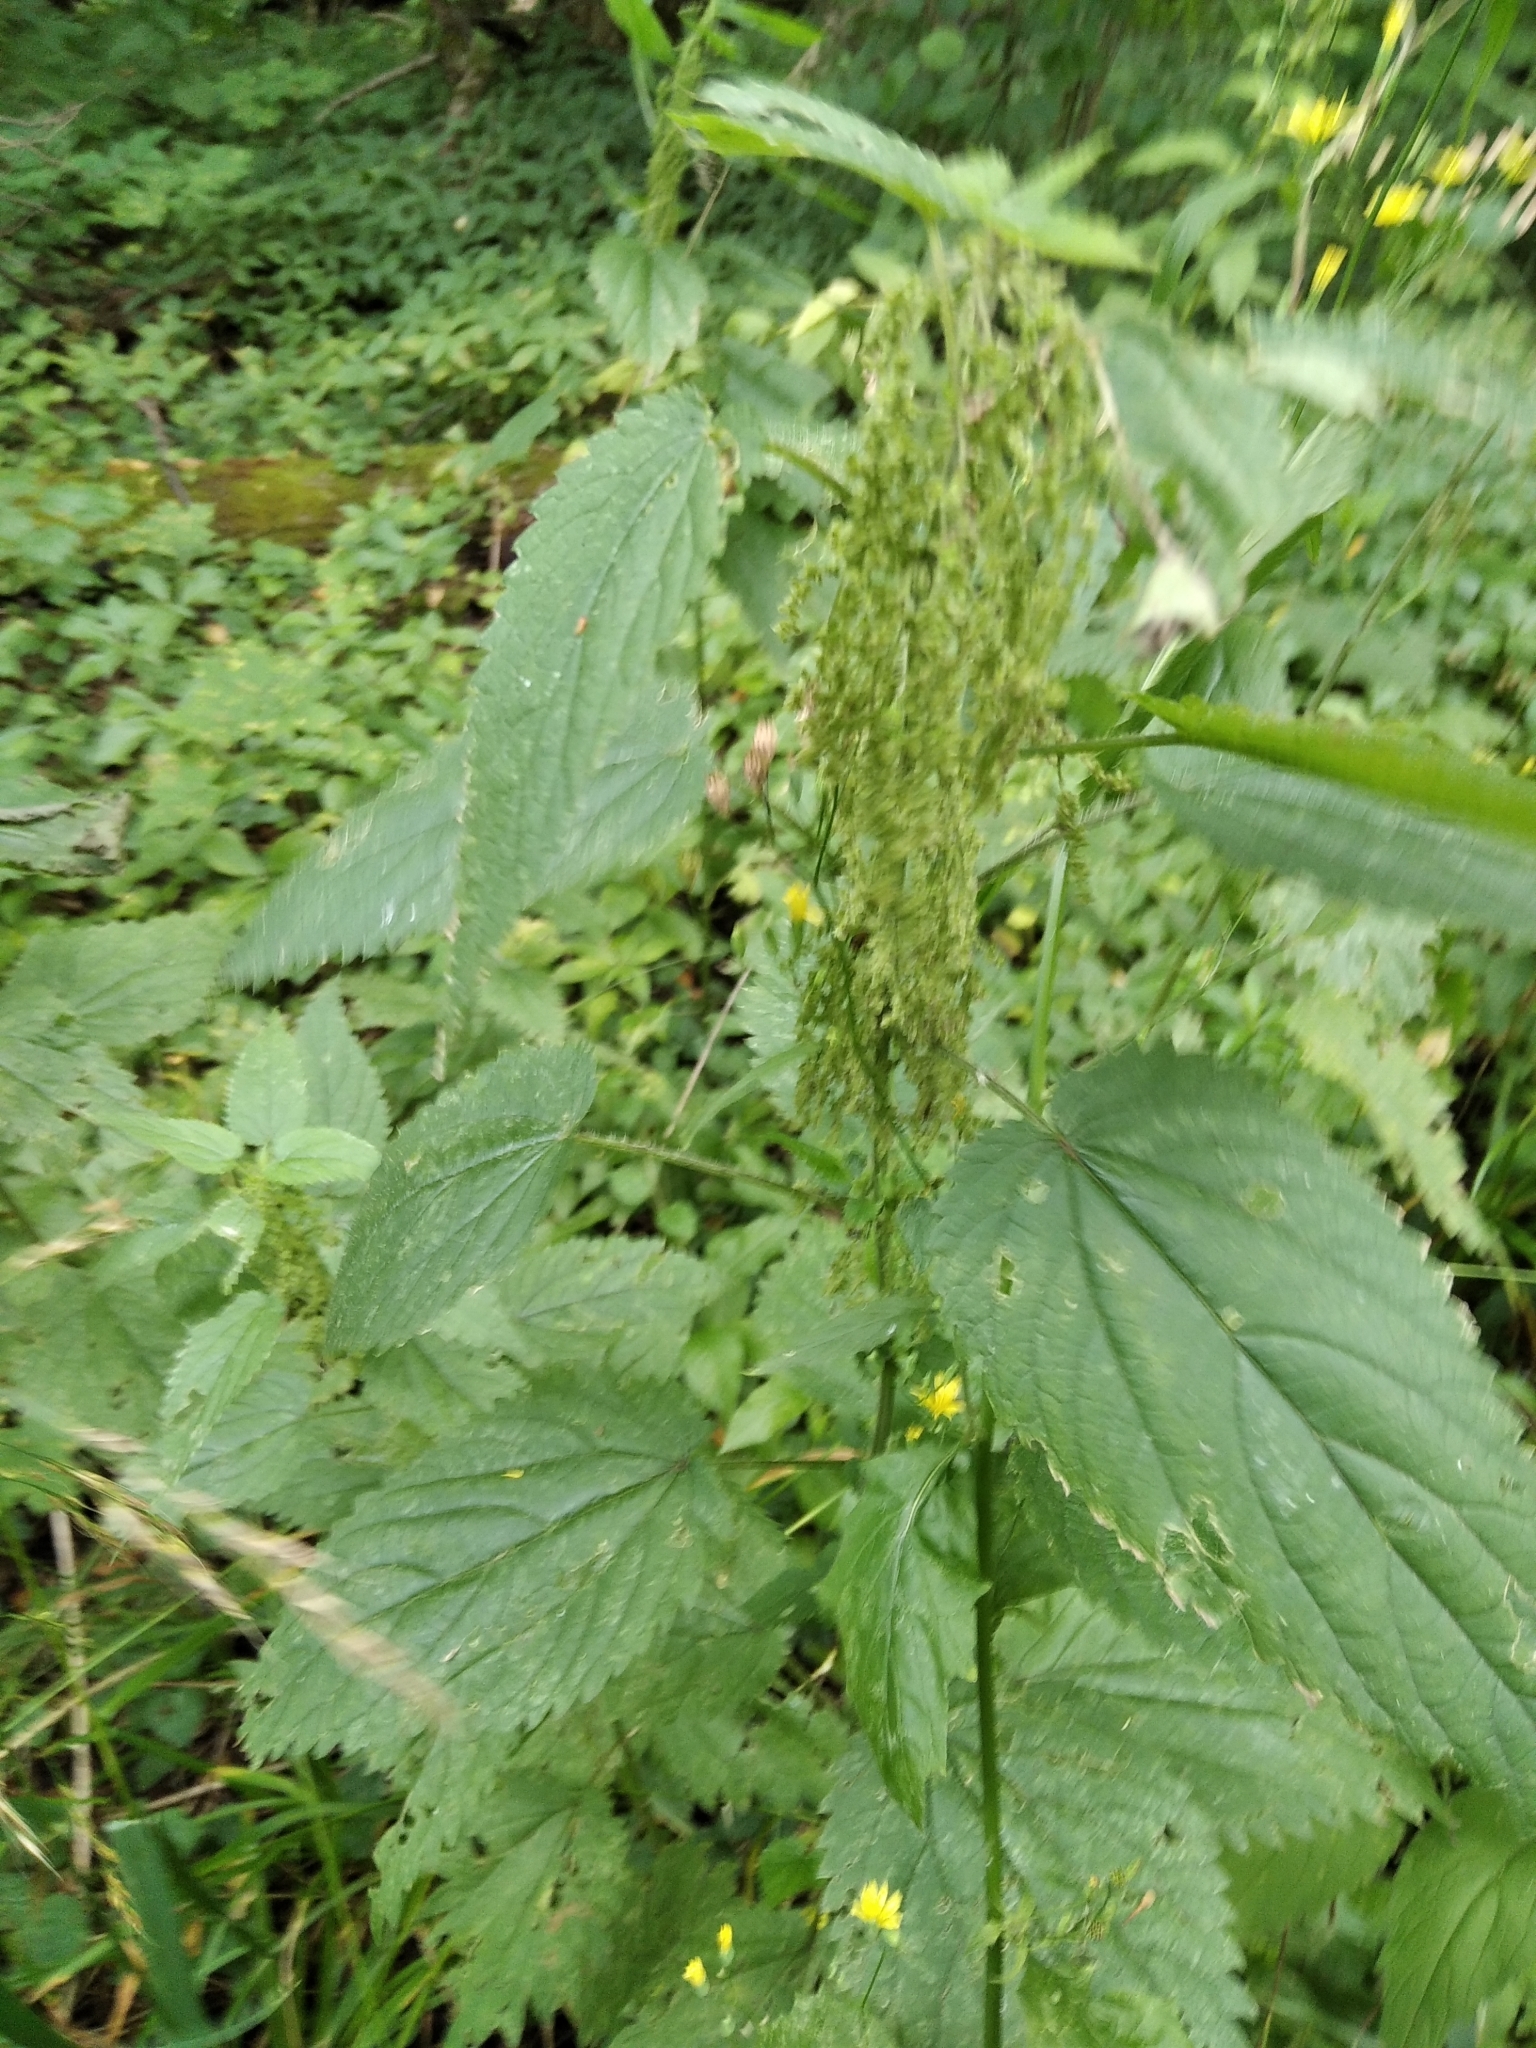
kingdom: Plantae
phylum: Tracheophyta
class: Magnoliopsida
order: Rosales
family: Urticaceae
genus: Urtica
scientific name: Urtica dioica
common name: Common nettle
